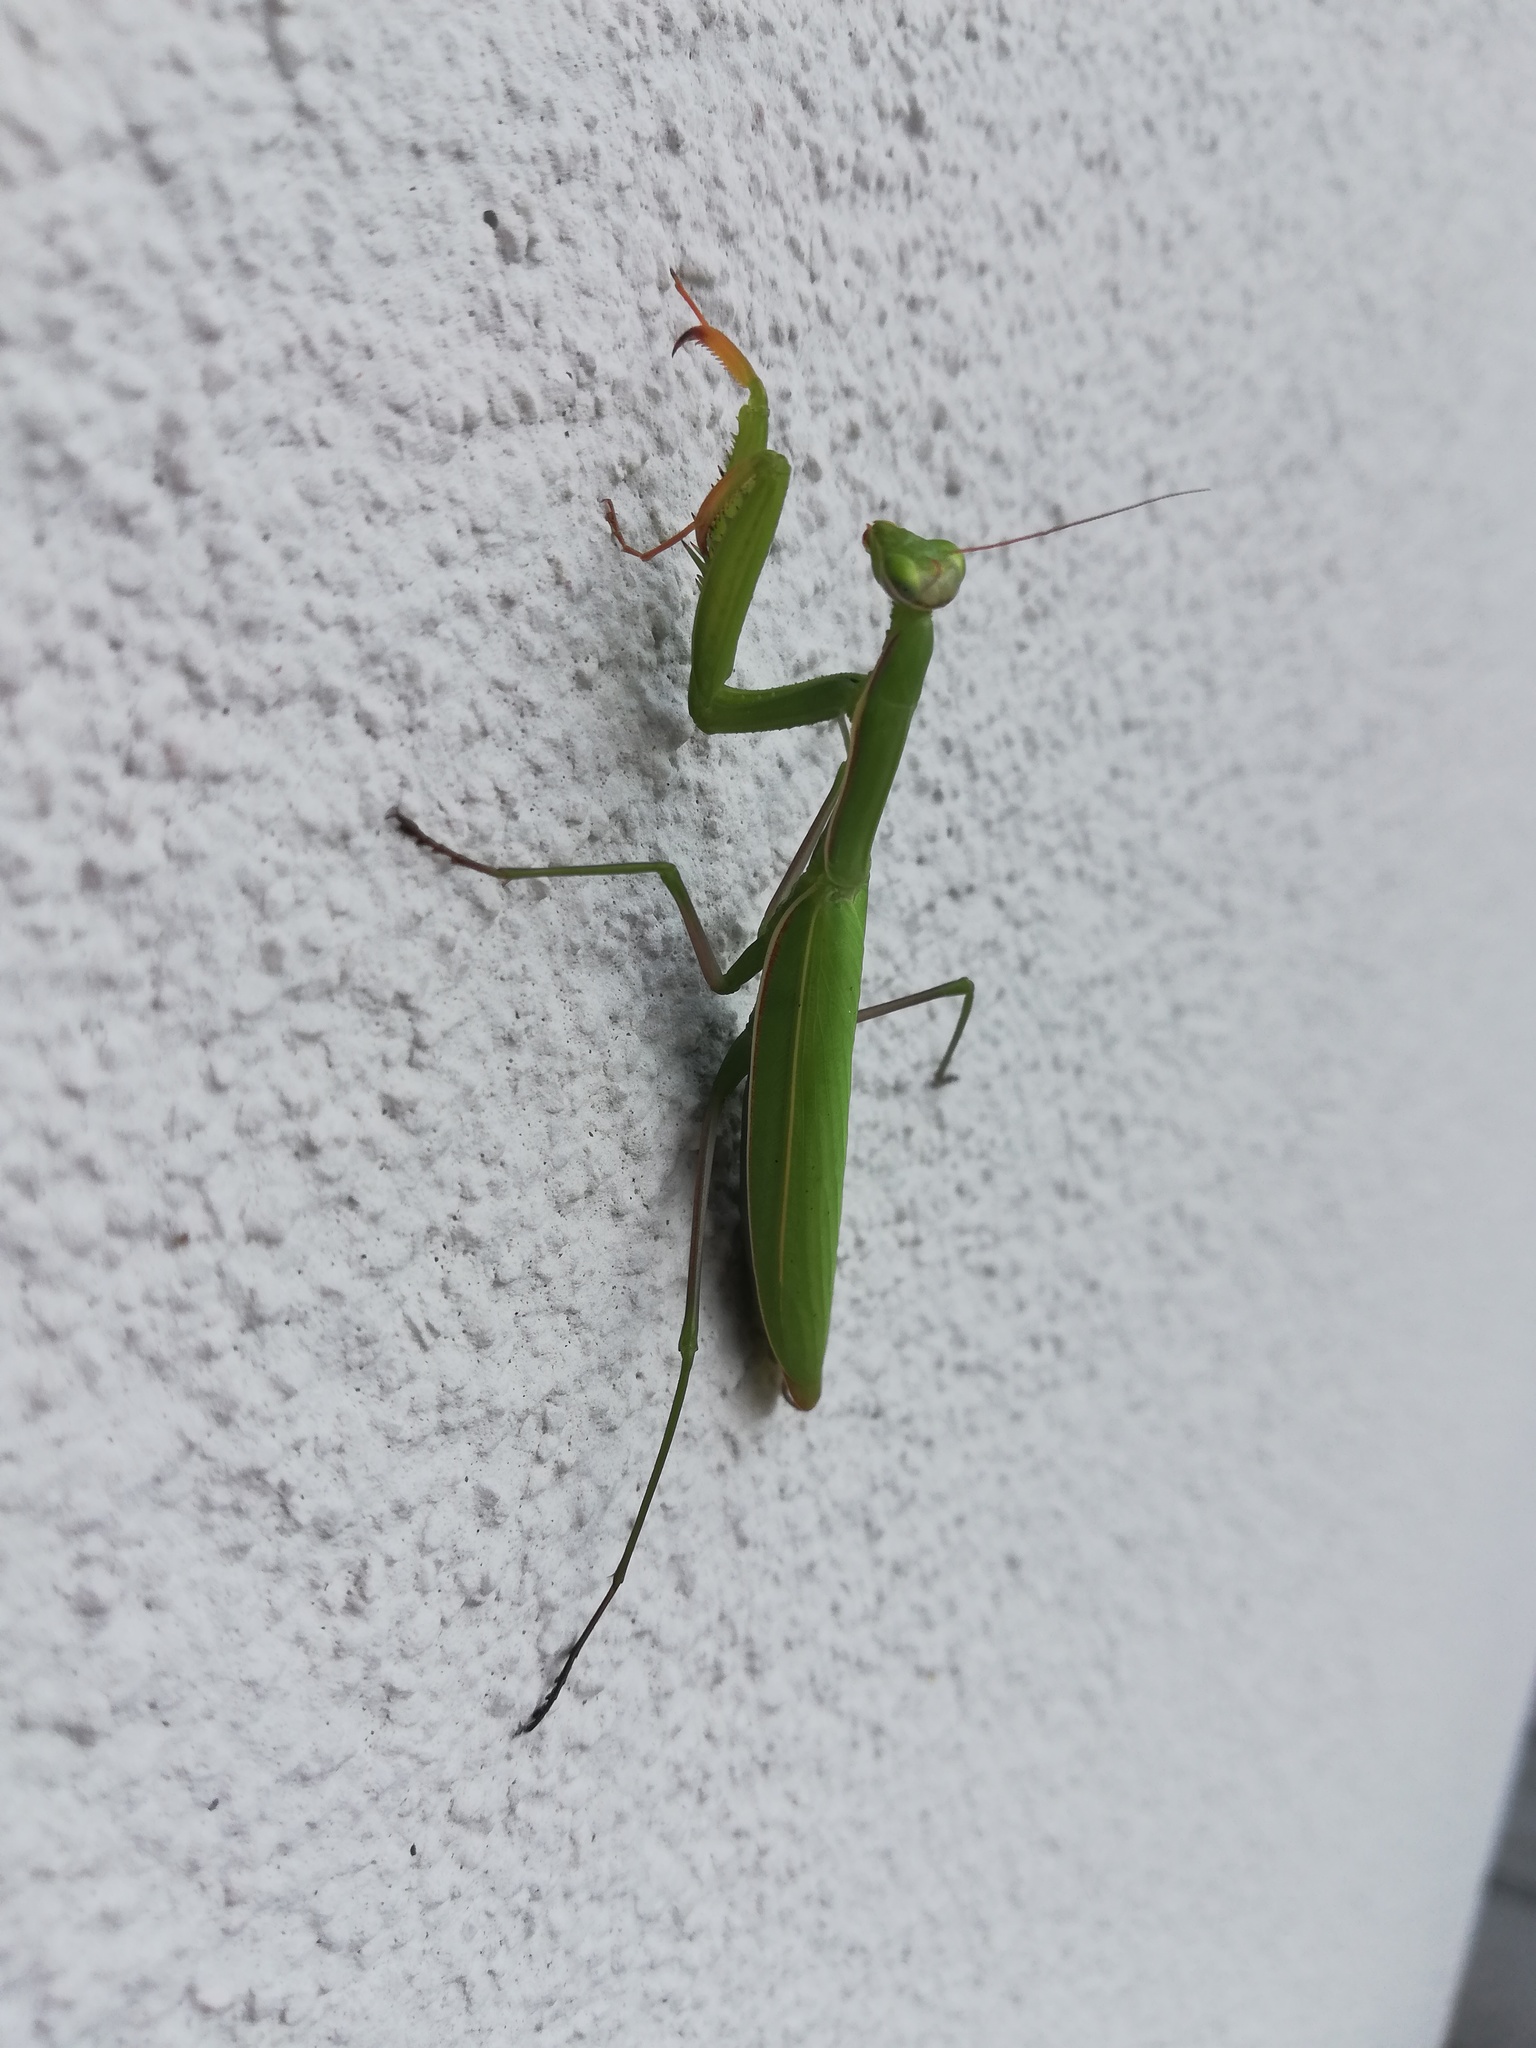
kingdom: Animalia
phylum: Arthropoda
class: Insecta
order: Mantodea
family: Mantidae
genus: Mantis
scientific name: Mantis religiosa
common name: Praying mantis
